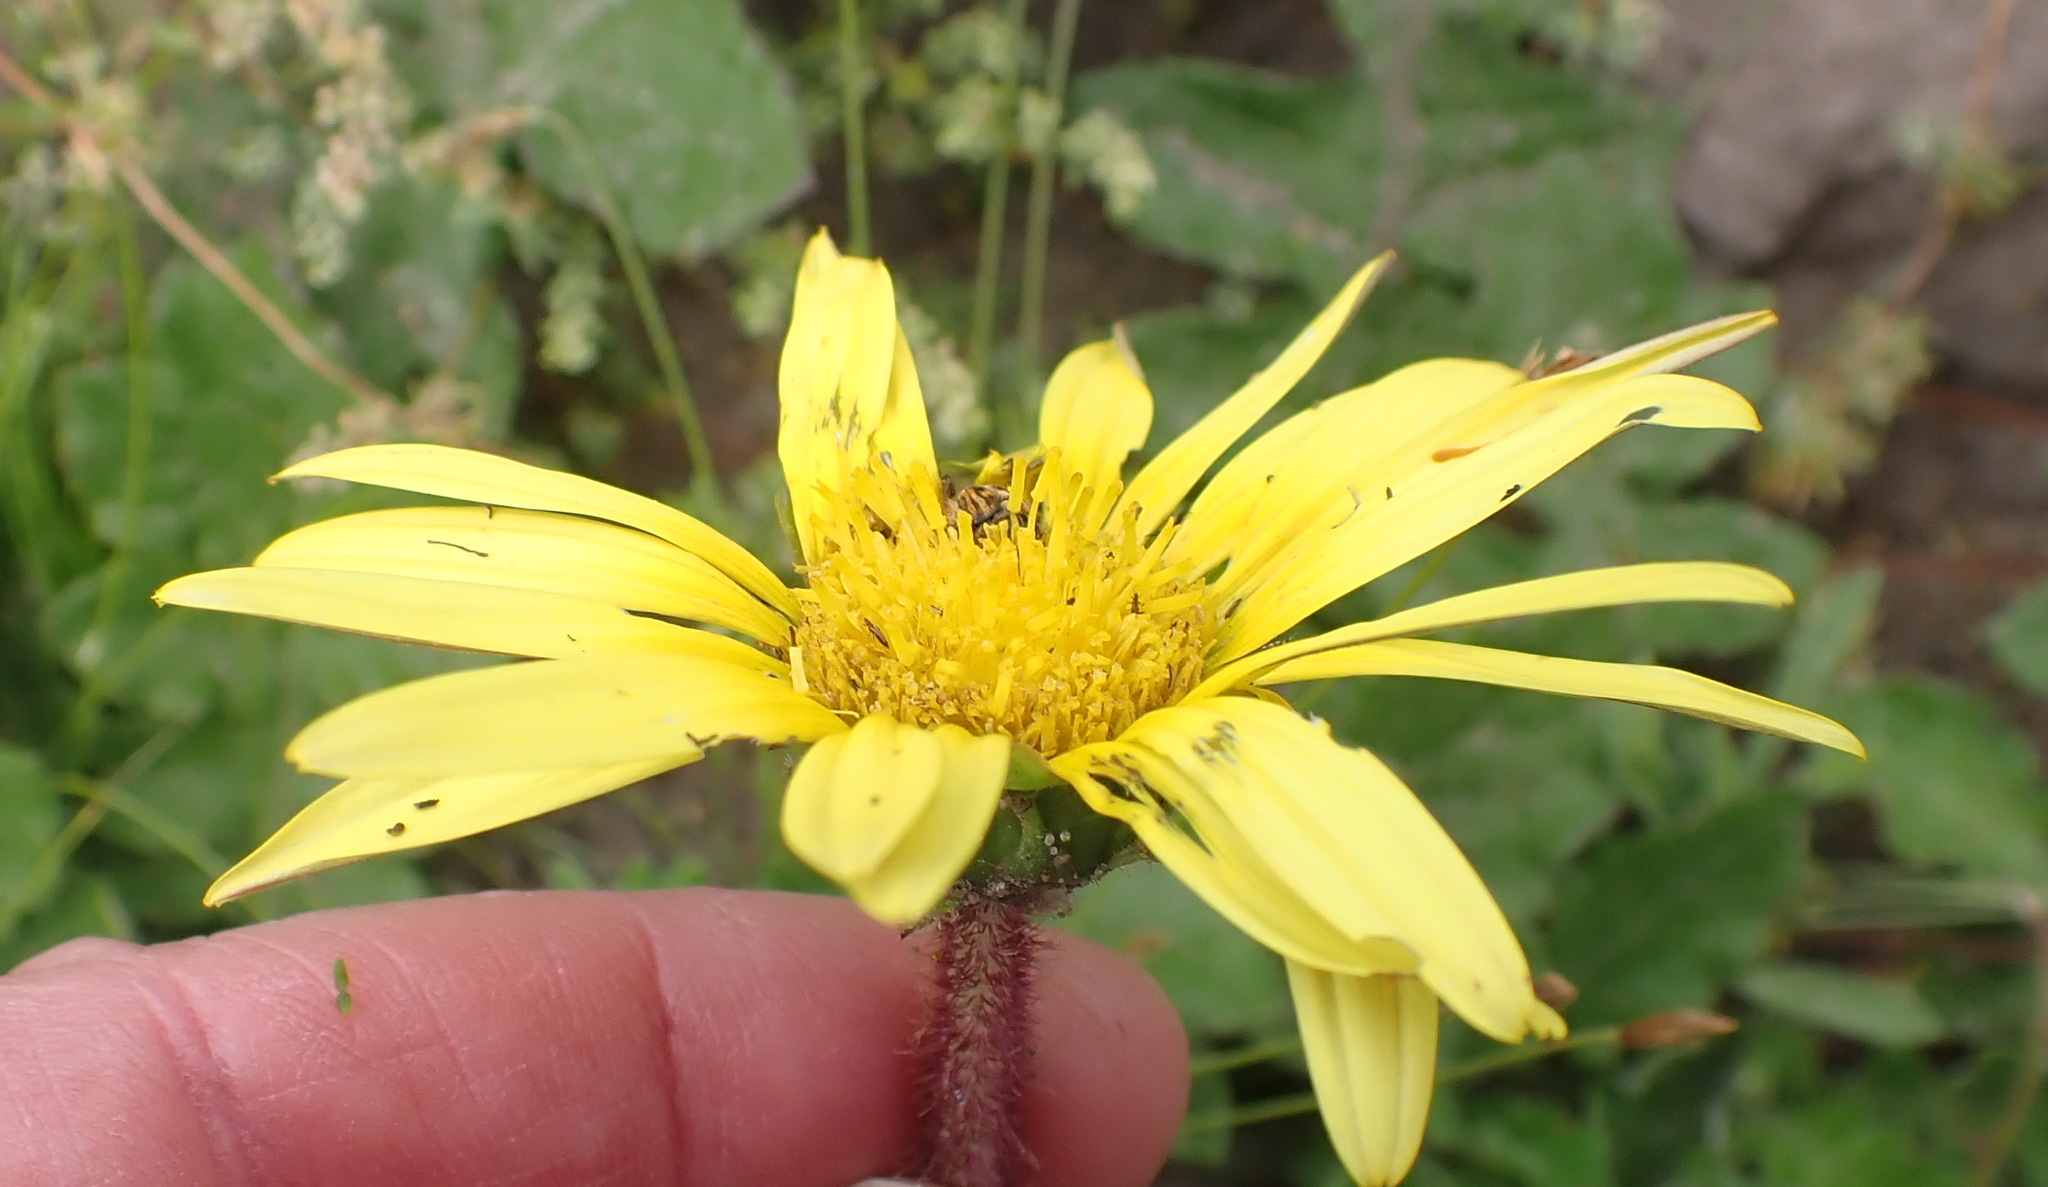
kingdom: Plantae
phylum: Tracheophyta
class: Magnoliopsida
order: Asterales
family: Asteraceae
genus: Arctotheca
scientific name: Arctotheca prostrata
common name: Capeweed
